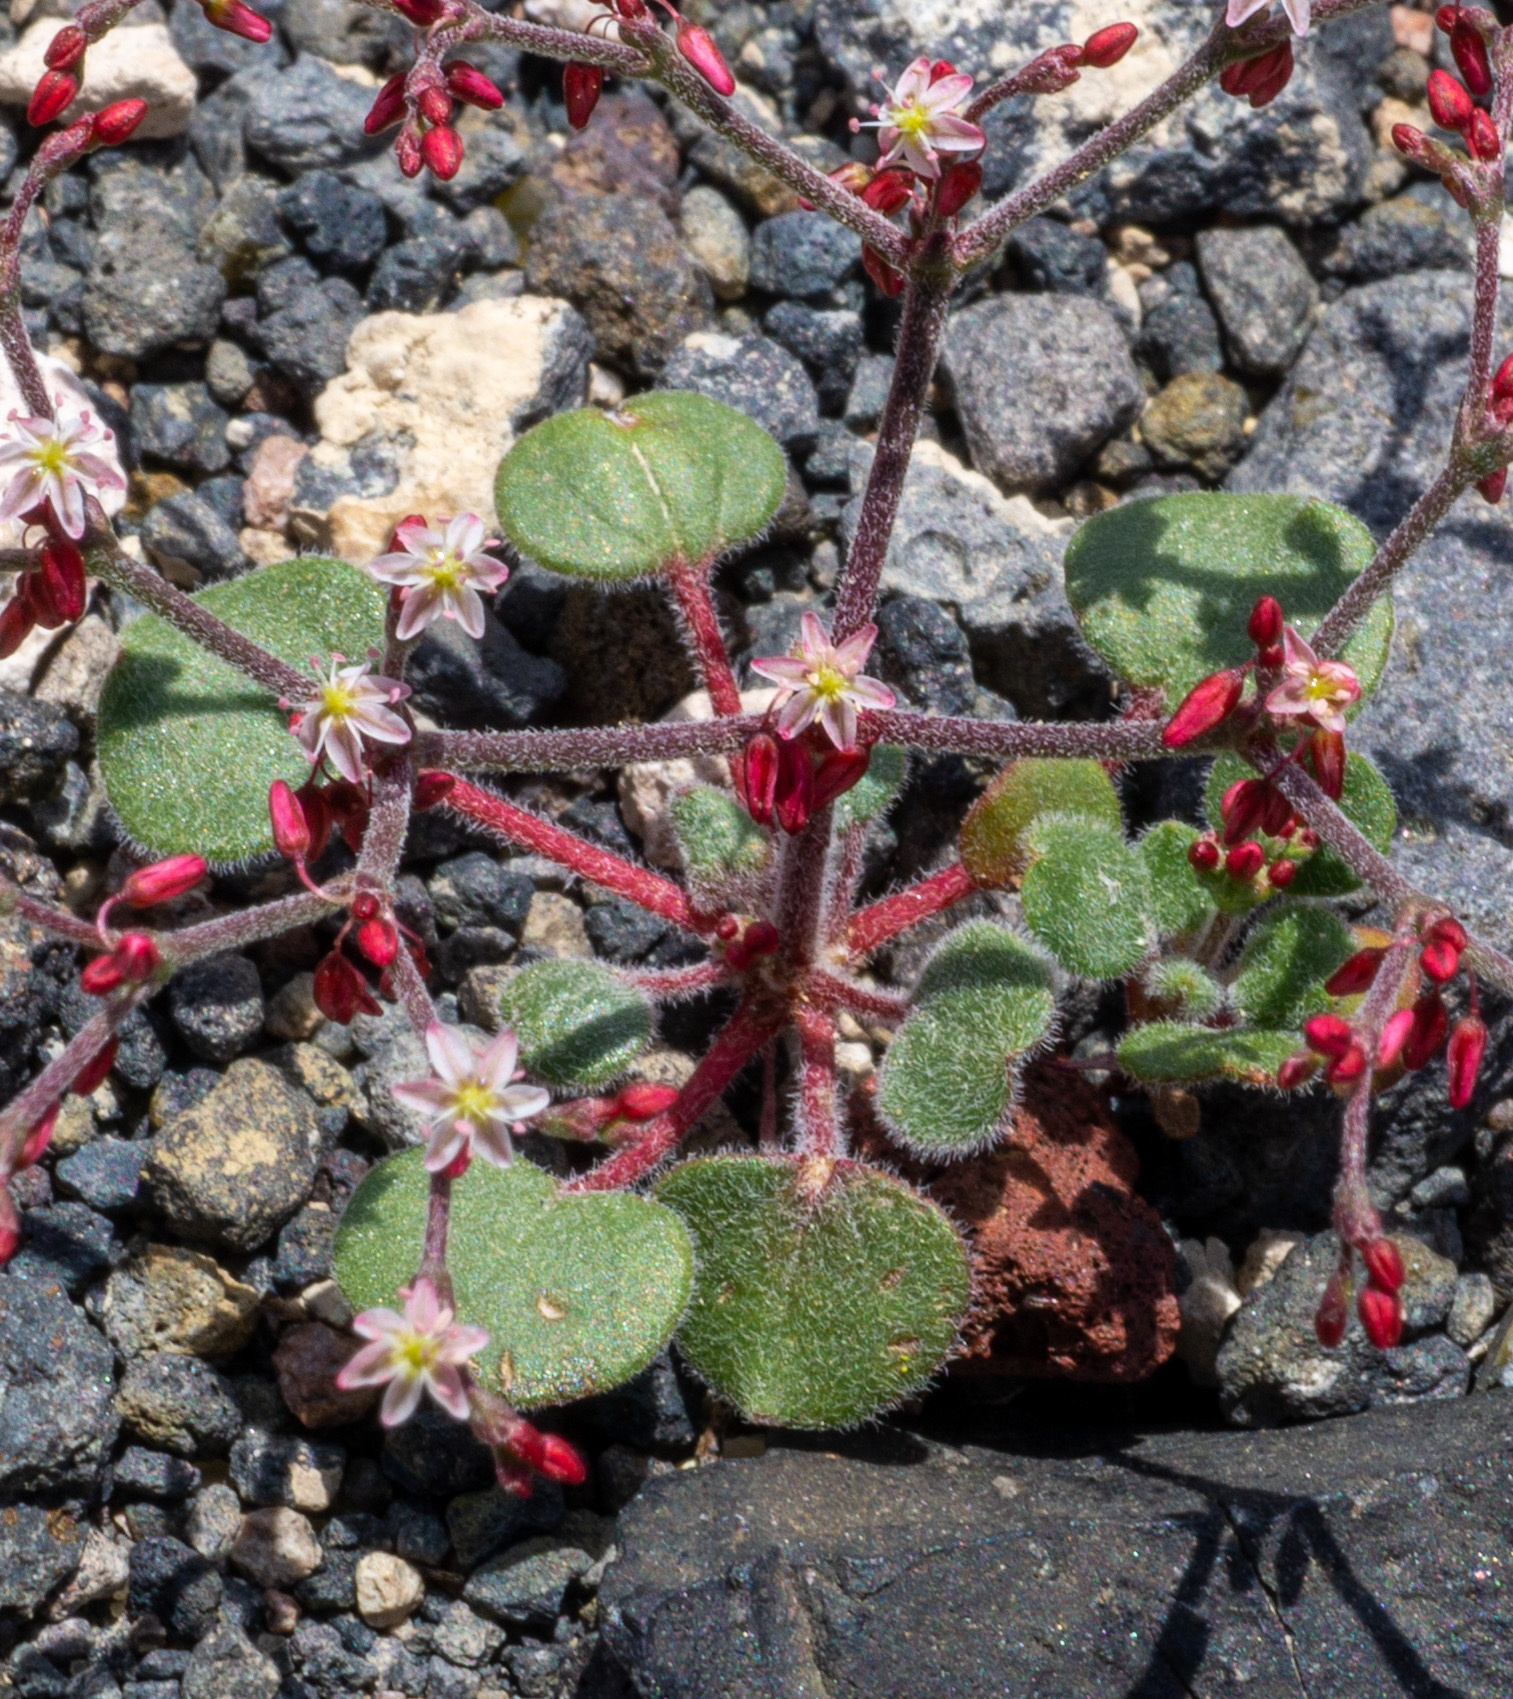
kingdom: Plantae
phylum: Tracheophyta
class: Magnoliopsida
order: Caryophyllales
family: Polygonaceae
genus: Johanneshowellia
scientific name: Johanneshowellia crateriorum
